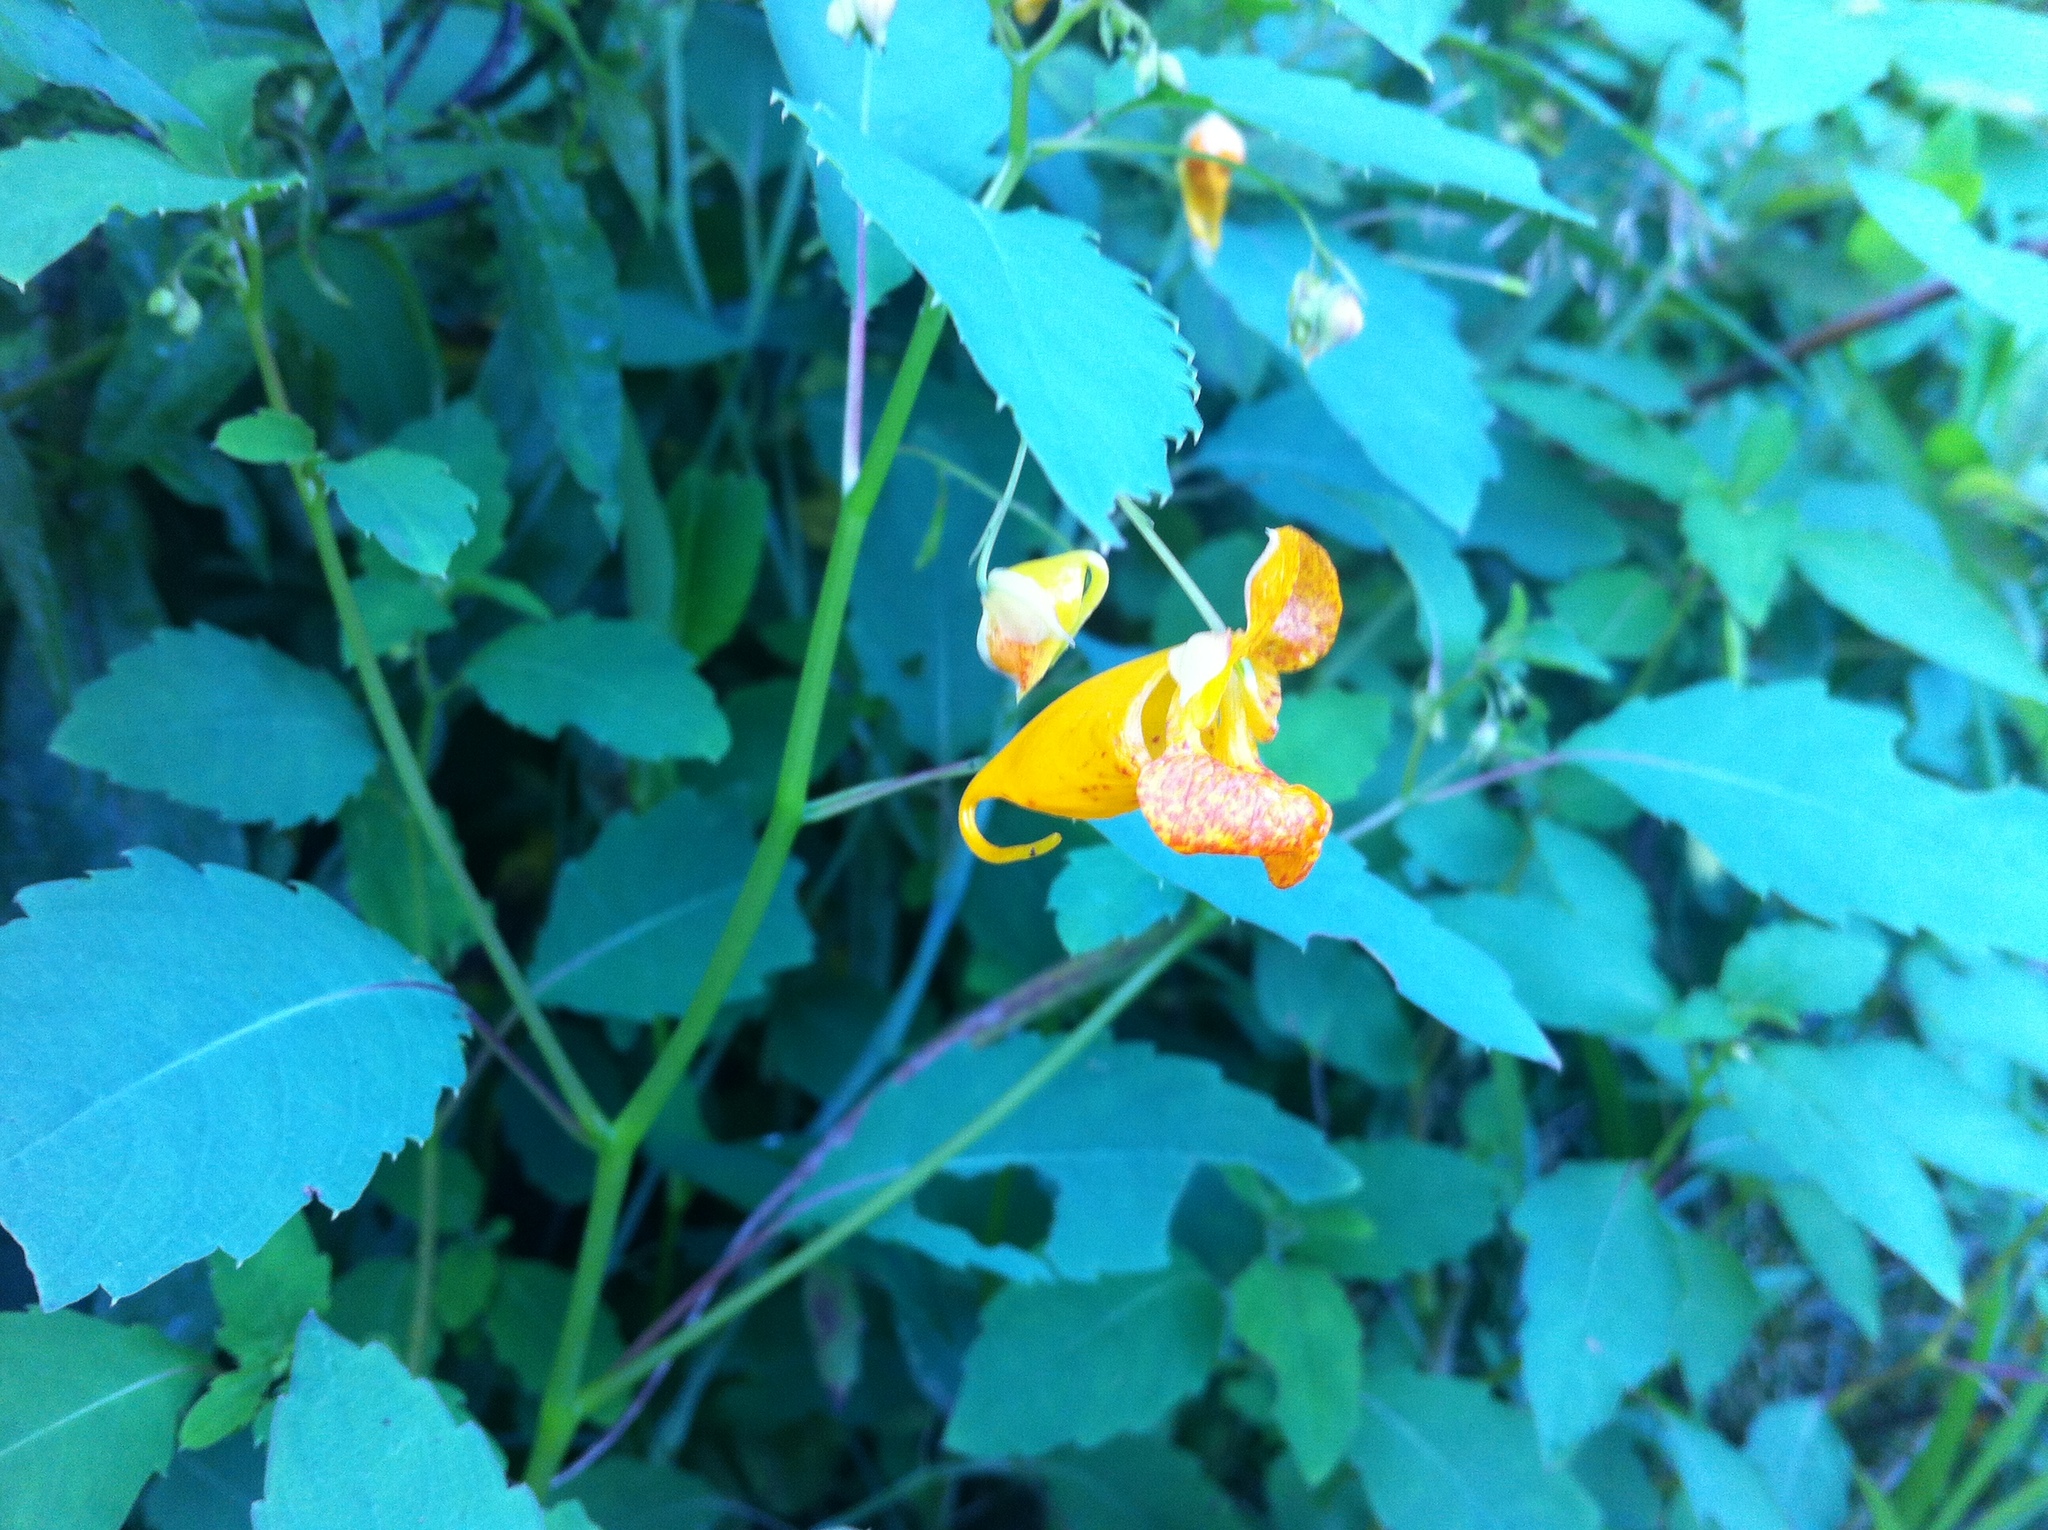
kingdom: Plantae
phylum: Tracheophyta
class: Magnoliopsida
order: Ericales
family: Balsaminaceae
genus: Impatiens
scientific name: Impatiens capensis
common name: Orange balsam
